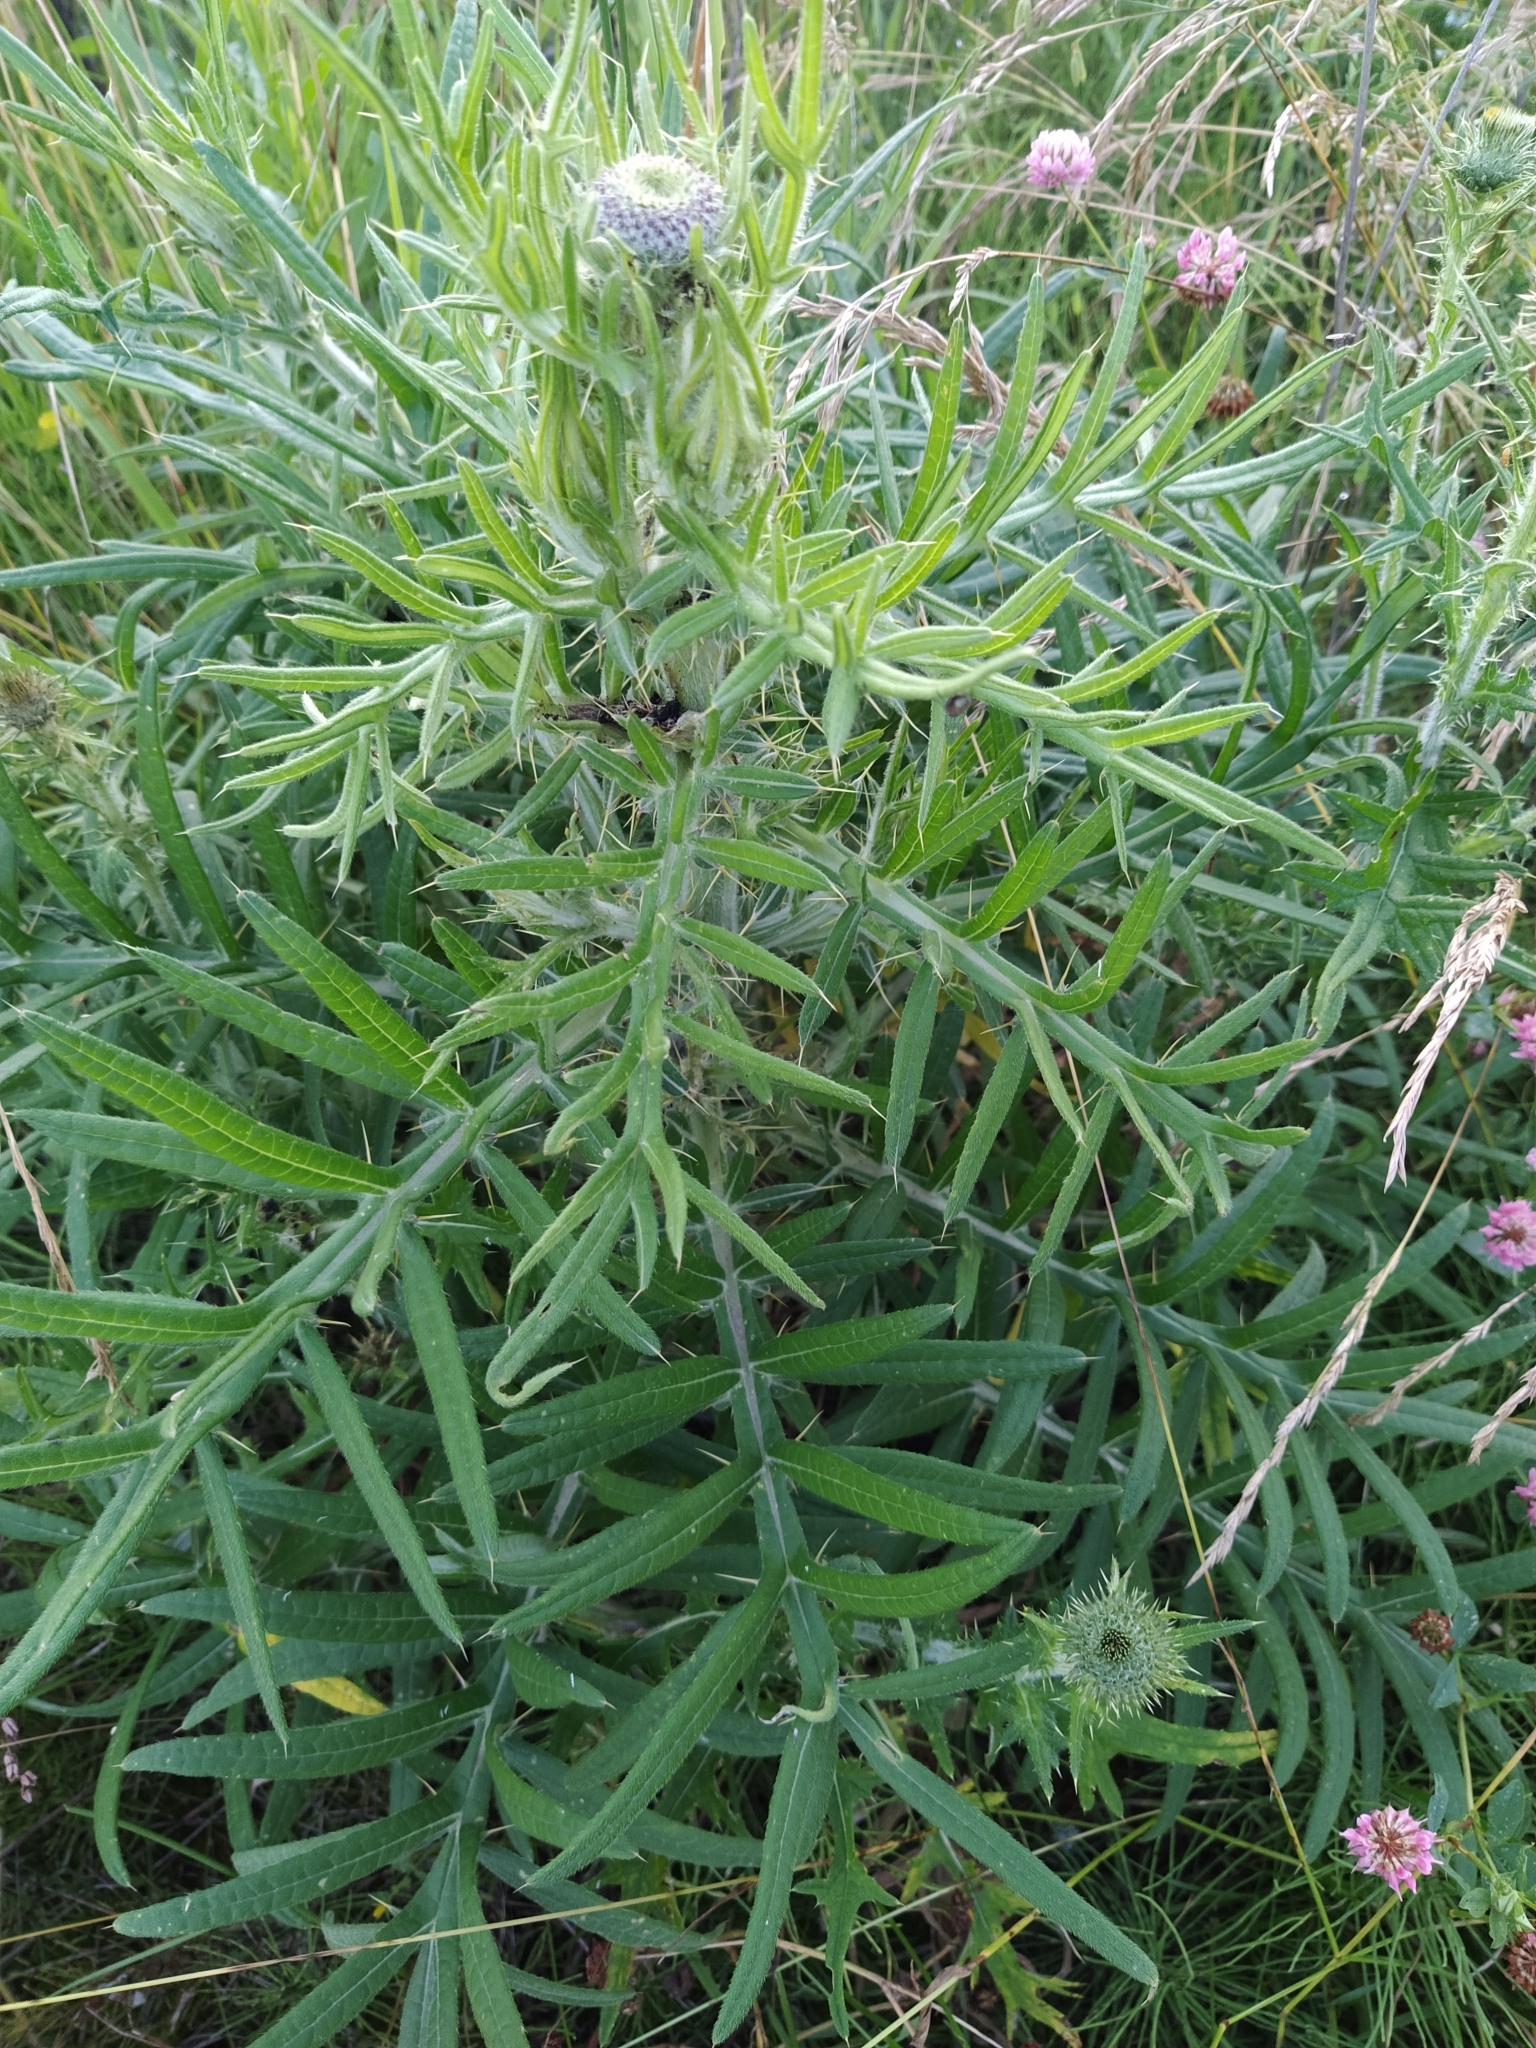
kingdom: Plantae
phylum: Tracheophyta
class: Magnoliopsida
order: Asterales
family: Asteraceae
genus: Lophiolepis
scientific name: Lophiolepis decussata
